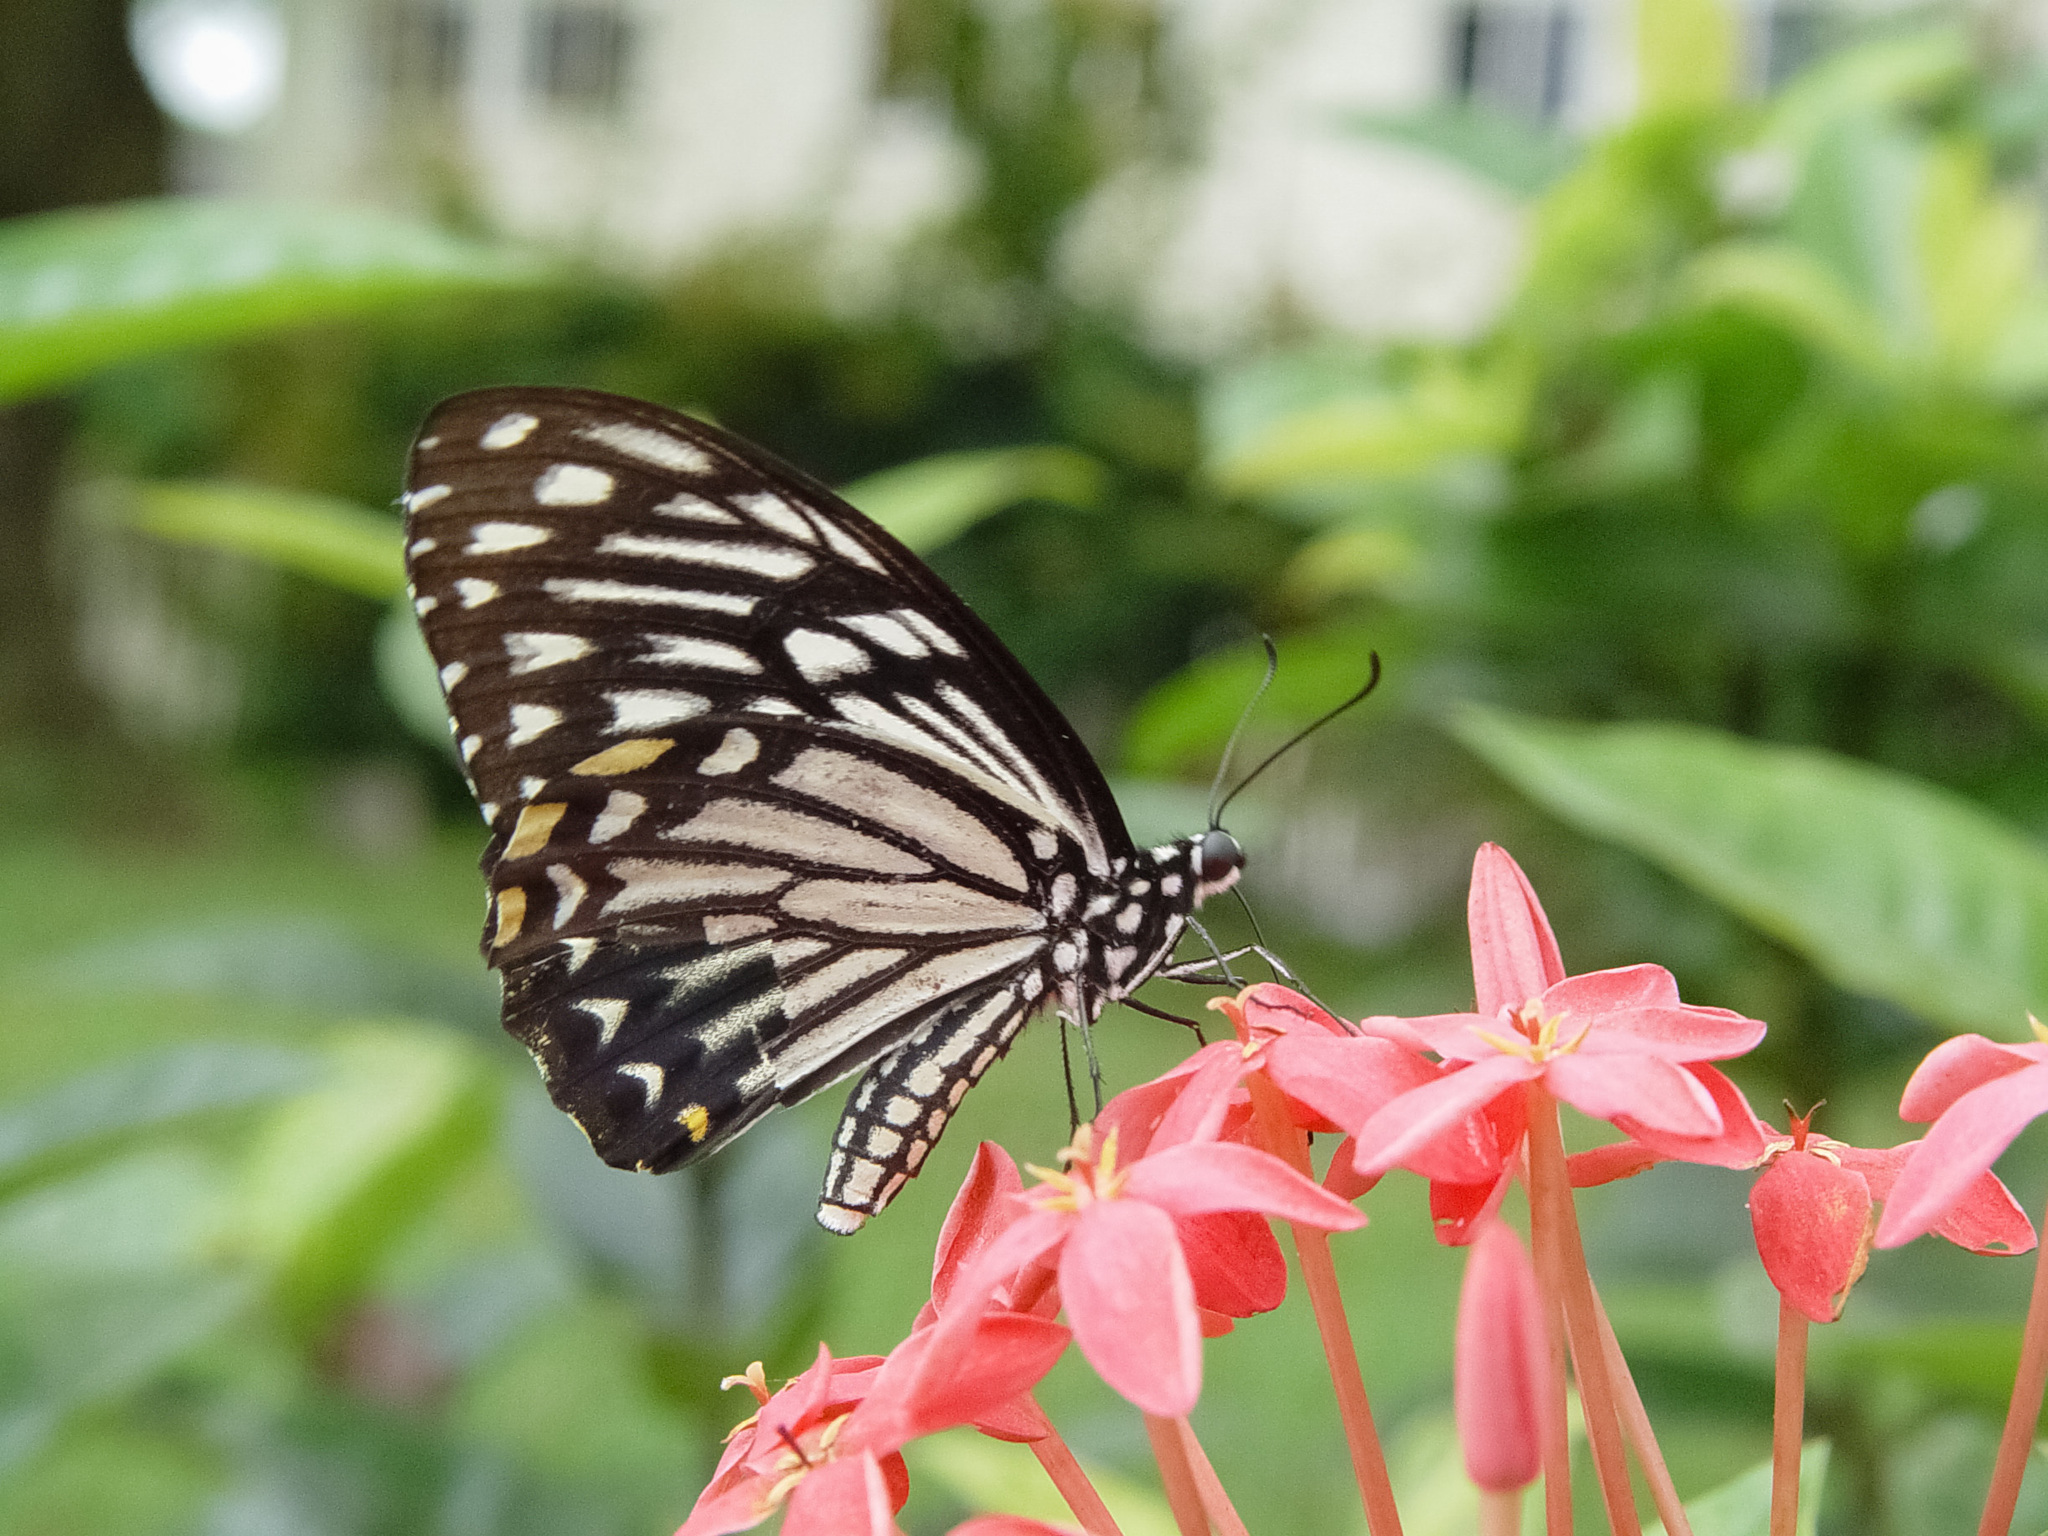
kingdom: Animalia
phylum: Arthropoda
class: Insecta
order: Lepidoptera
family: Papilionidae
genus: Chilasa
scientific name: Chilasa clytia
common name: Common mime
